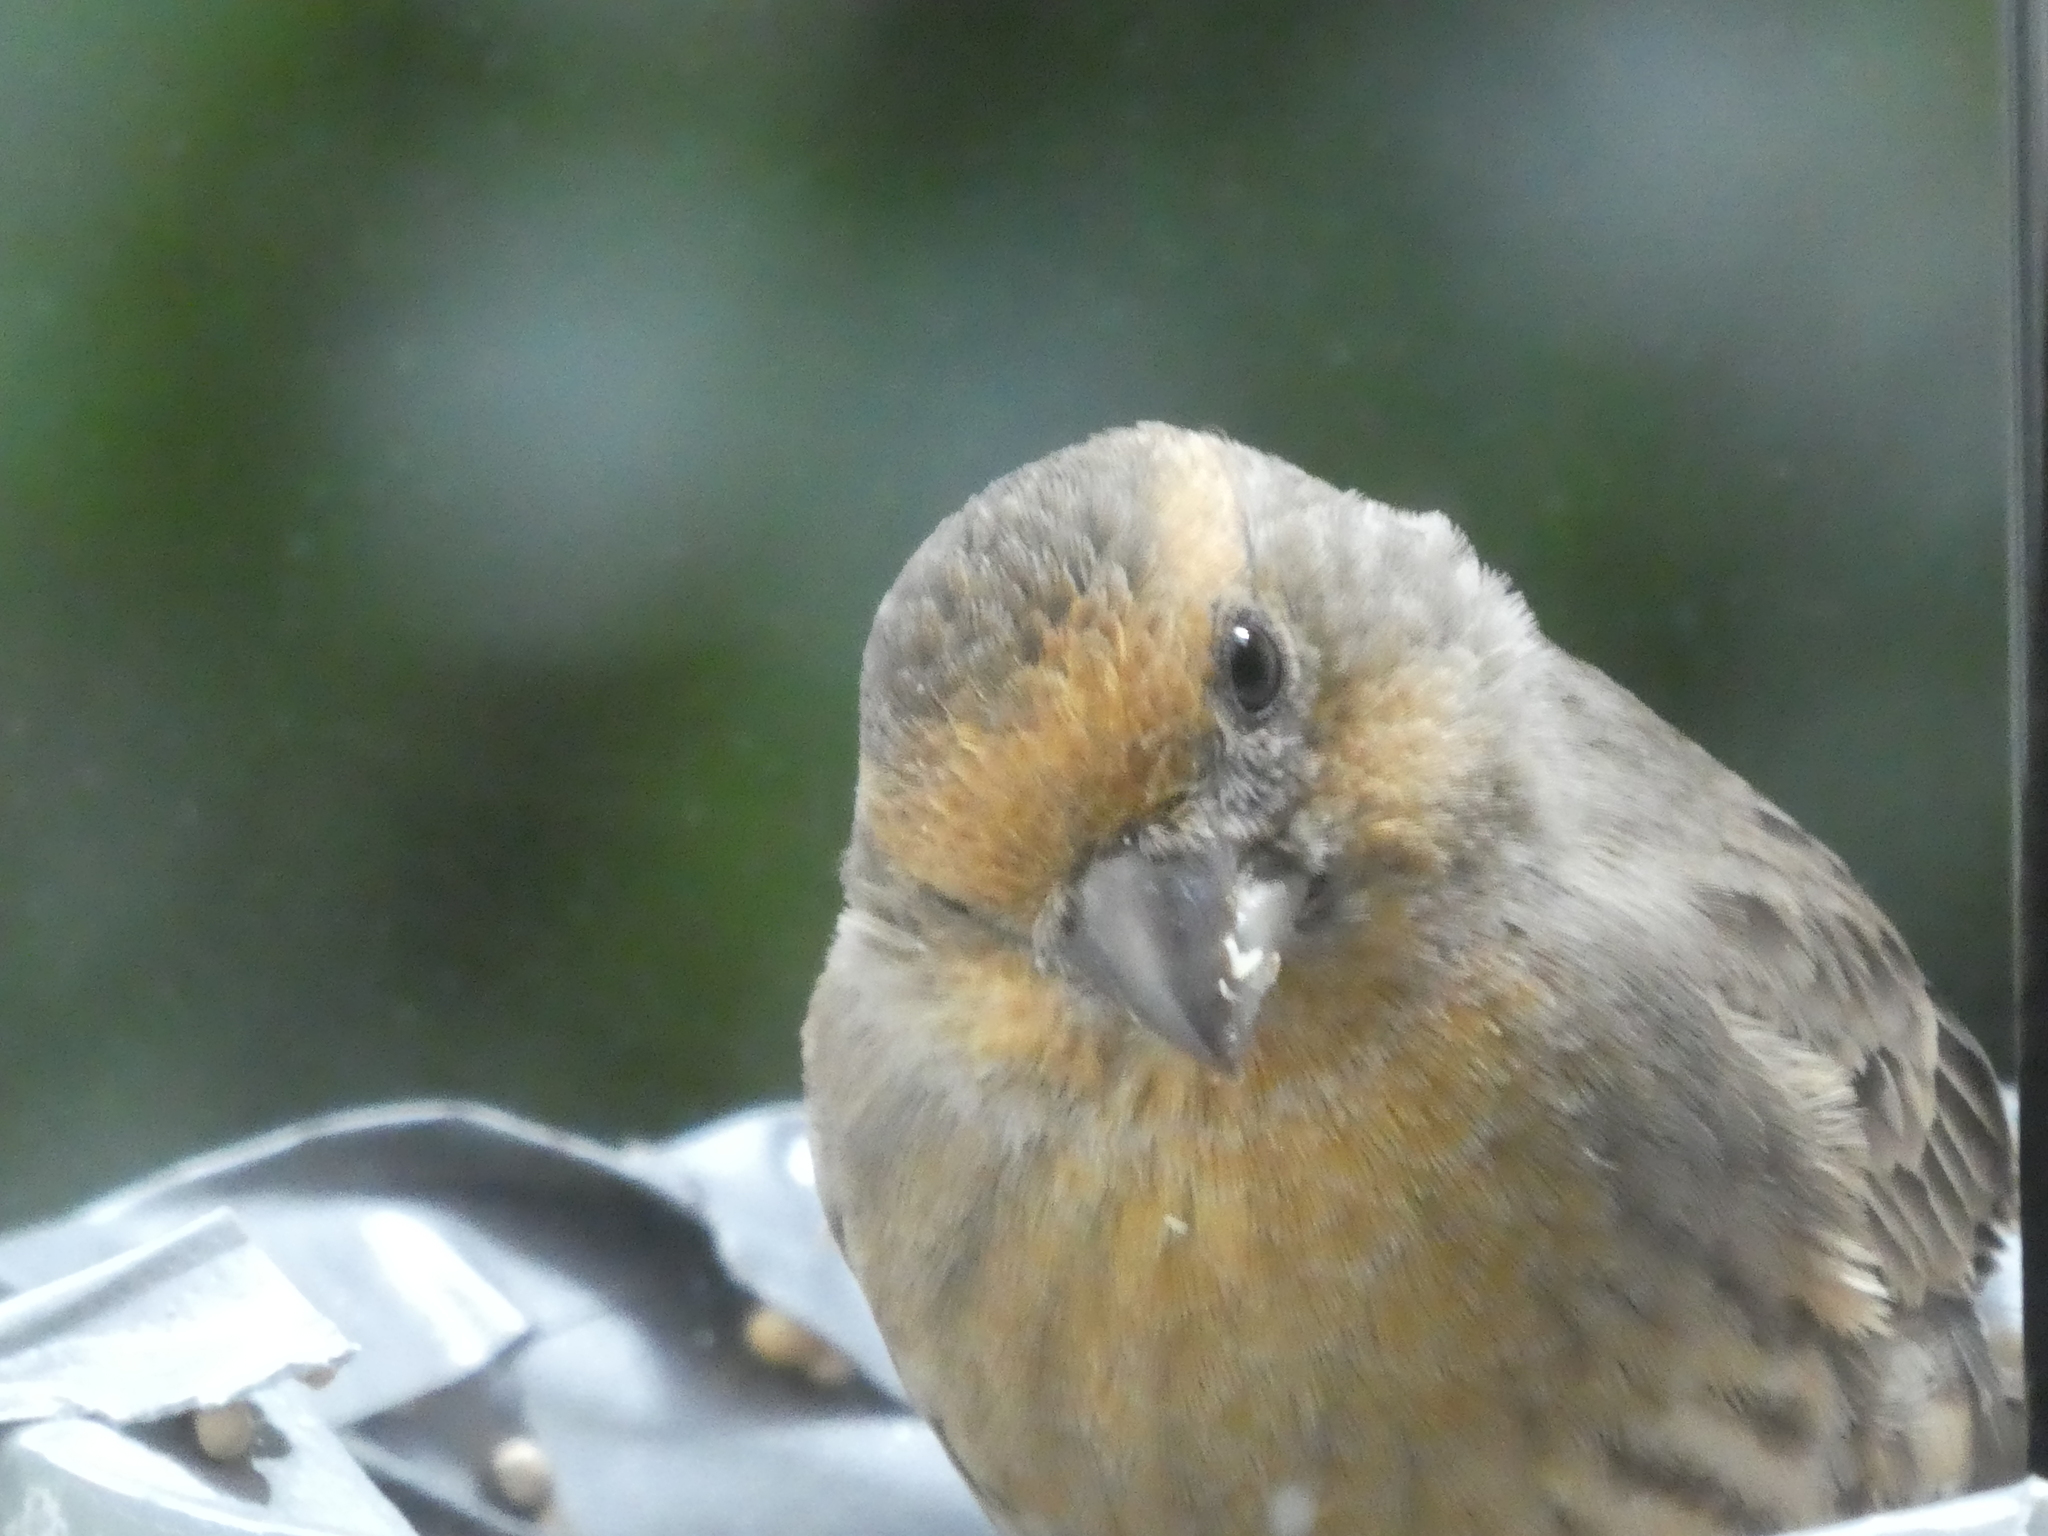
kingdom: Animalia
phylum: Chordata
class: Aves
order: Passeriformes
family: Fringillidae
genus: Haemorhous
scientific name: Haemorhous mexicanus
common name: House finch
